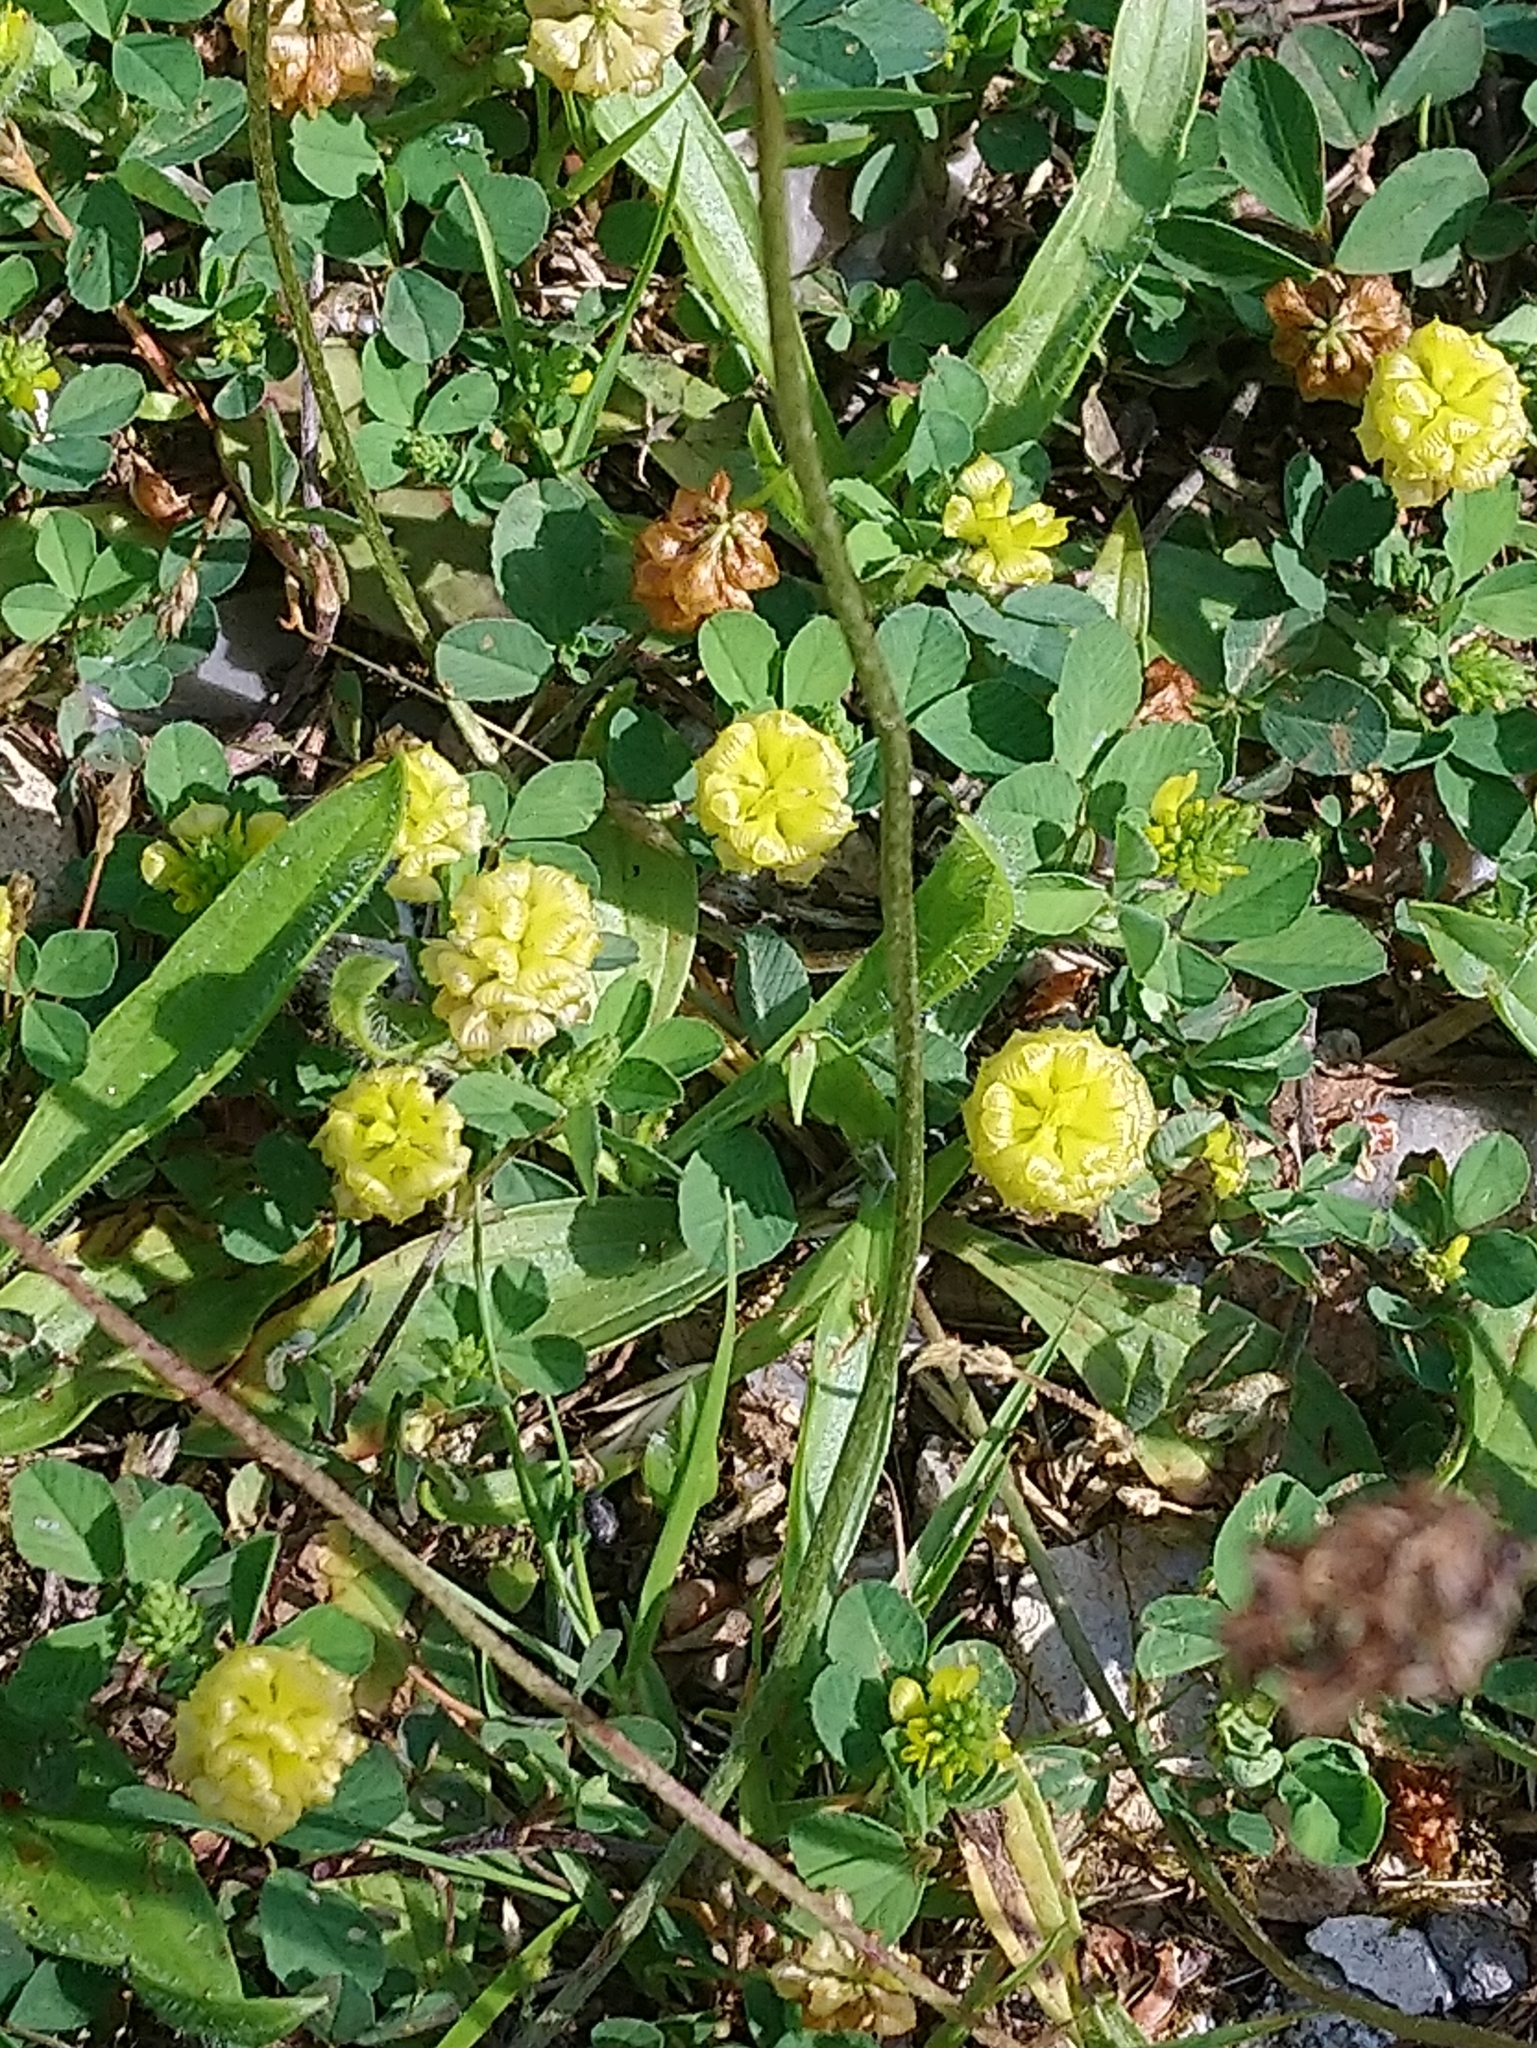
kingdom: Plantae
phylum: Tracheophyta
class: Magnoliopsida
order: Fabales
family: Fabaceae
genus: Trifolium
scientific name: Trifolium campestre
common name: Field clover
